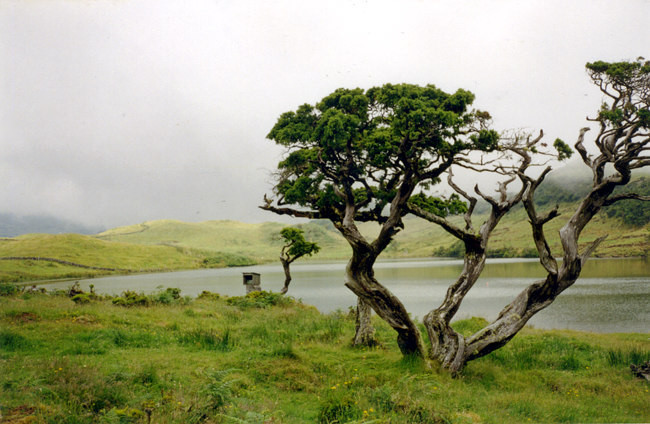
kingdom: Plantae
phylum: Tracheophyta
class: Pinopsida
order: Pinales
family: Cupressaceae
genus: Juniperus
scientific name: Juniperus brevifolia
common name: Azores juniper
